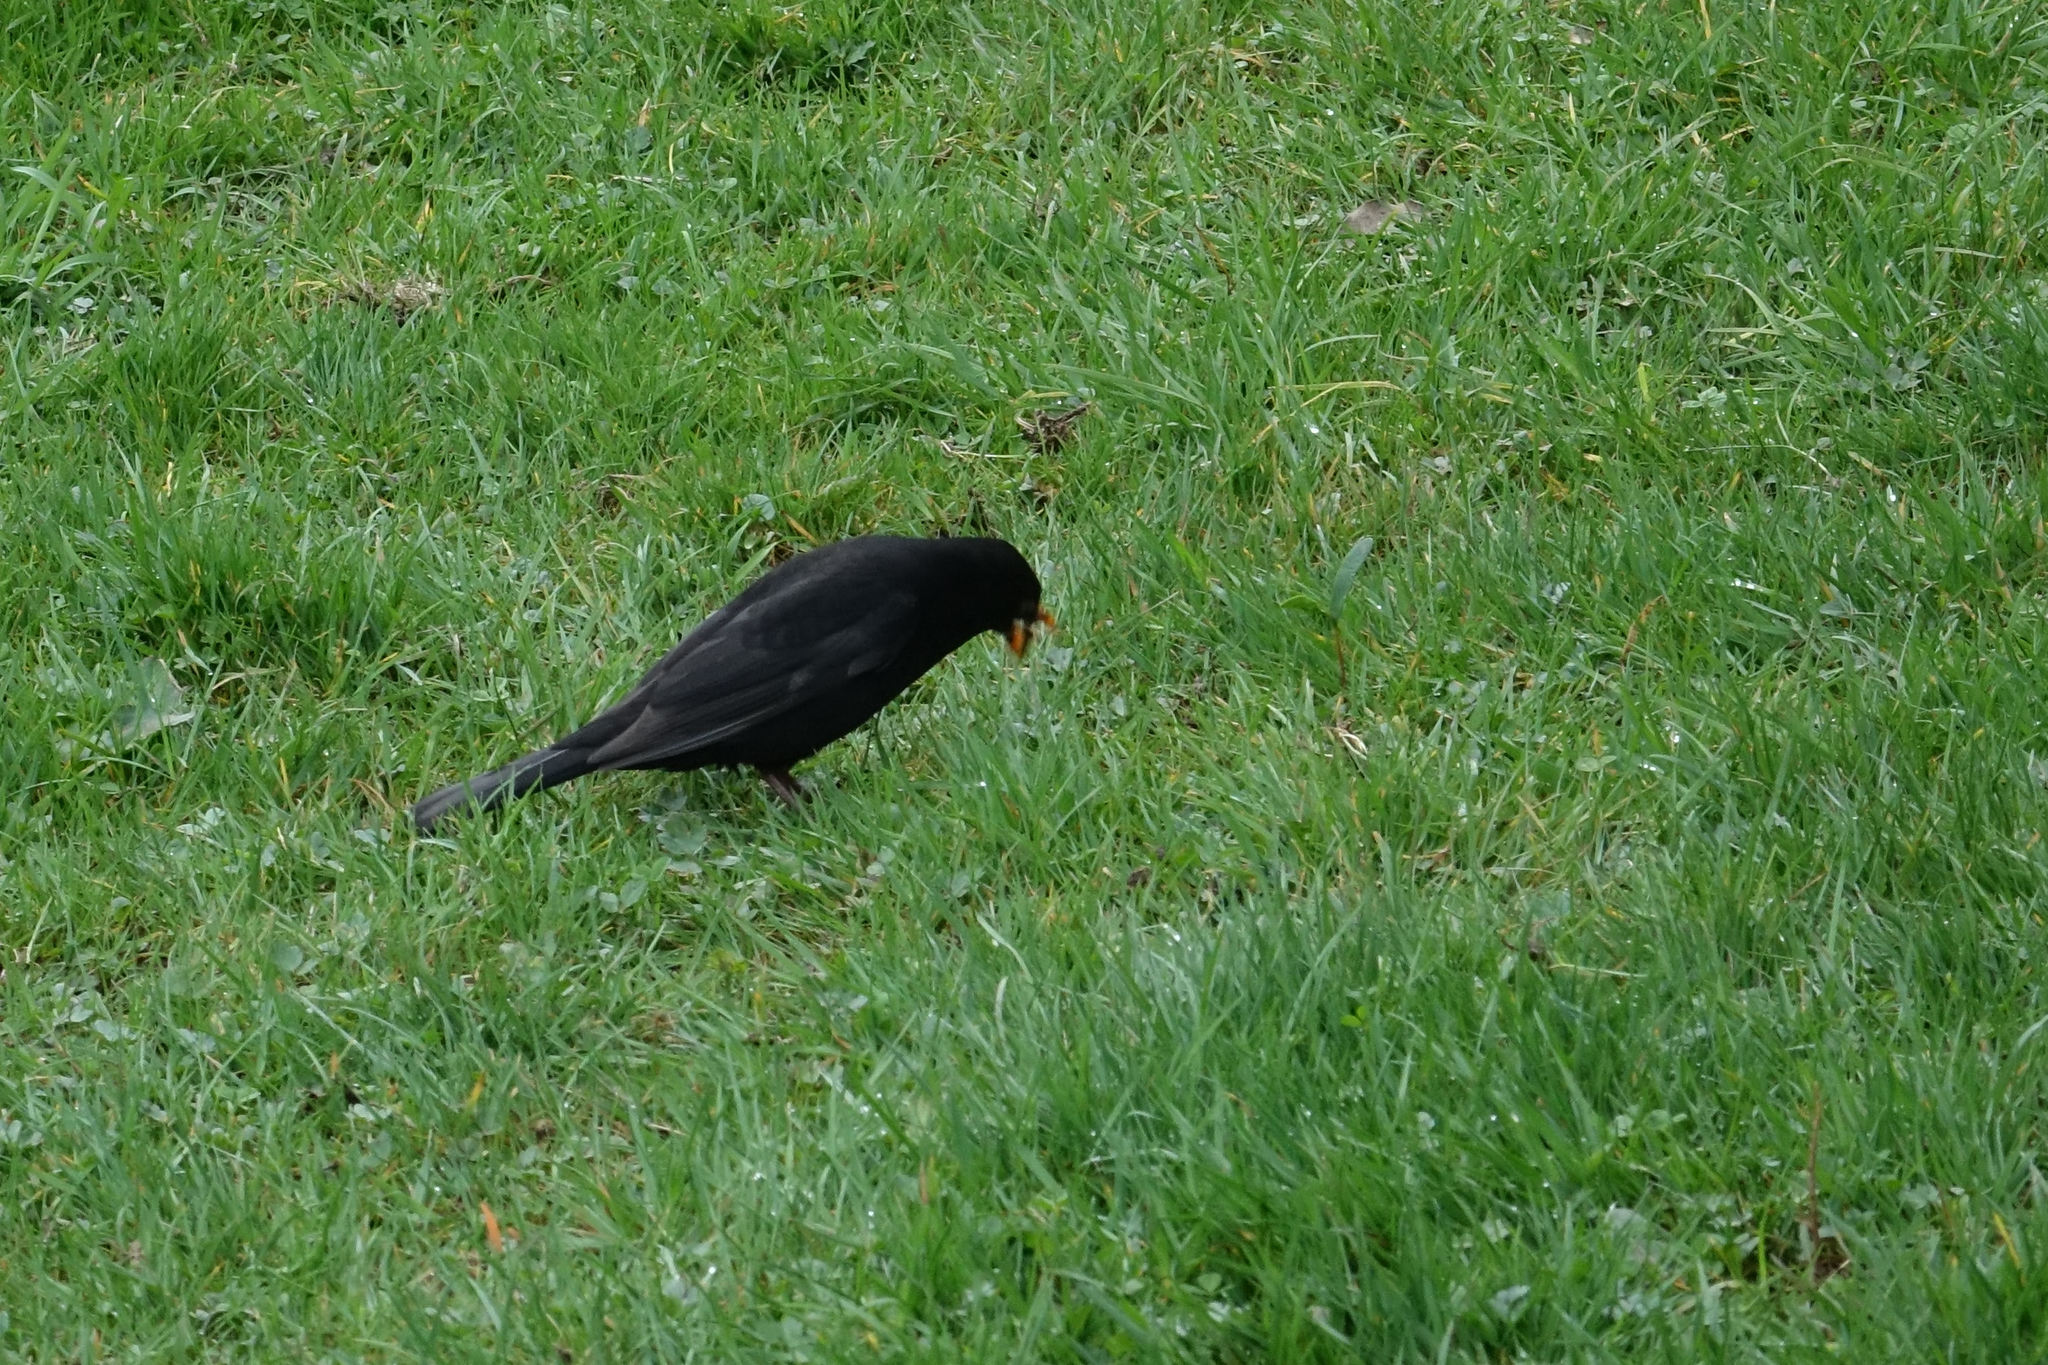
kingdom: Animalia
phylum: Chordata
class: Aves
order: Passeriformes
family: Turdidae
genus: Turdus
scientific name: Turdus merula
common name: Common blackbird
